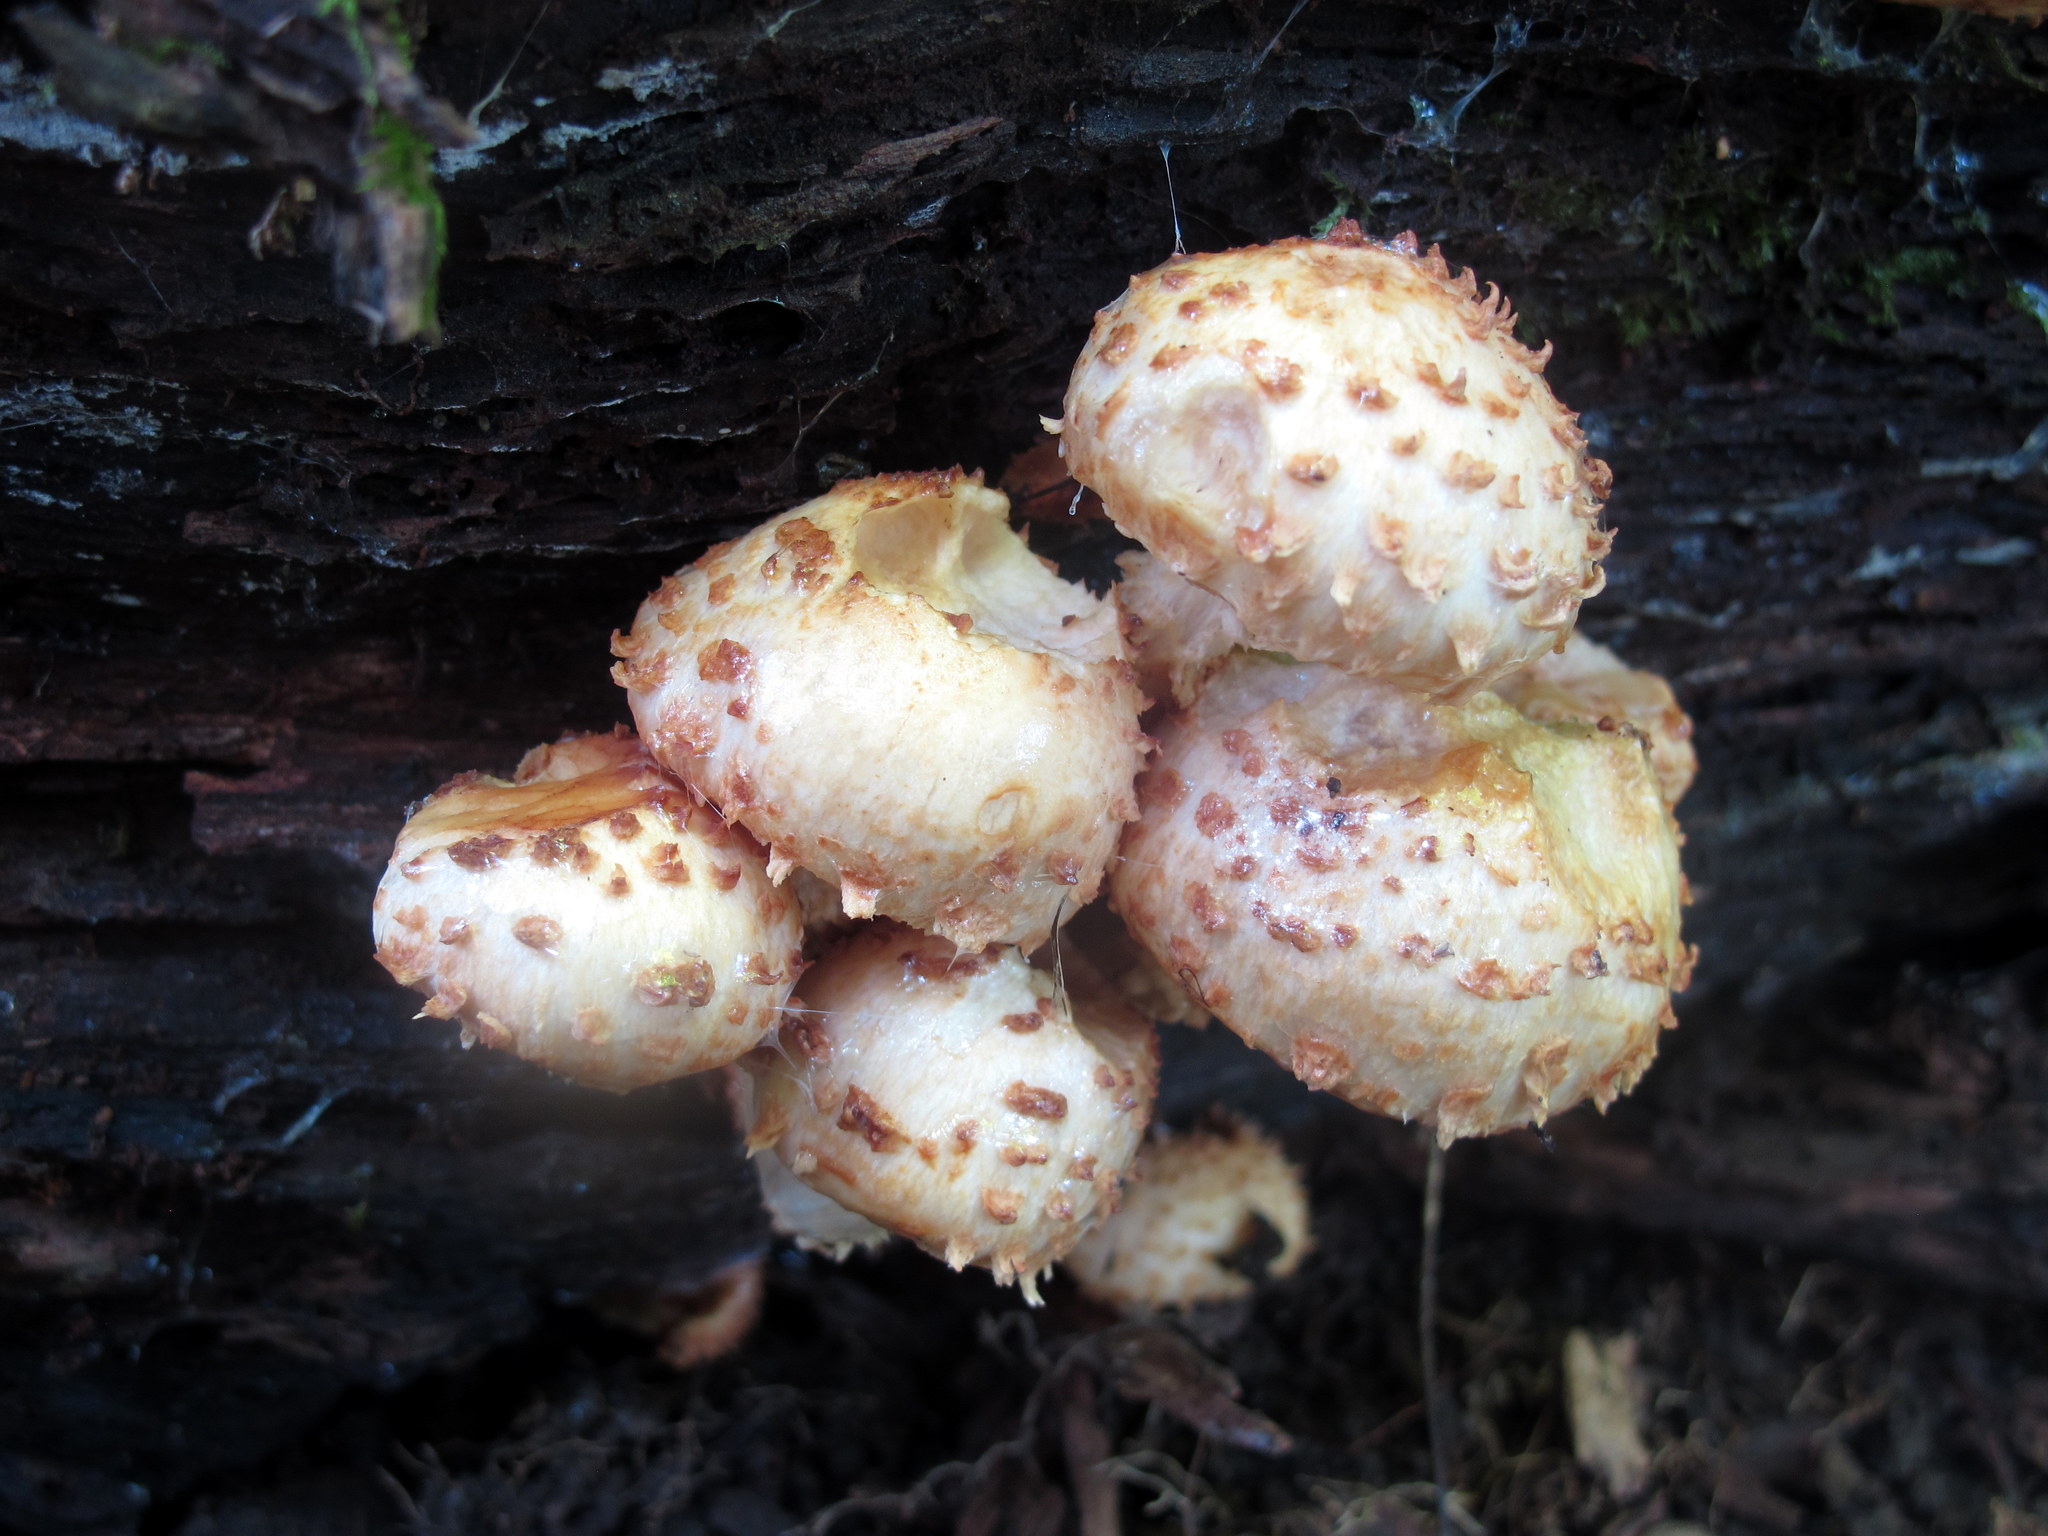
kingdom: Fungi
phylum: Basidiomycota
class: Agaricomycetes
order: Agaricales
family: Strophariaceae
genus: Pholiota
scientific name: Pholiota squarrosoides
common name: Sharp-scaly pholiota
